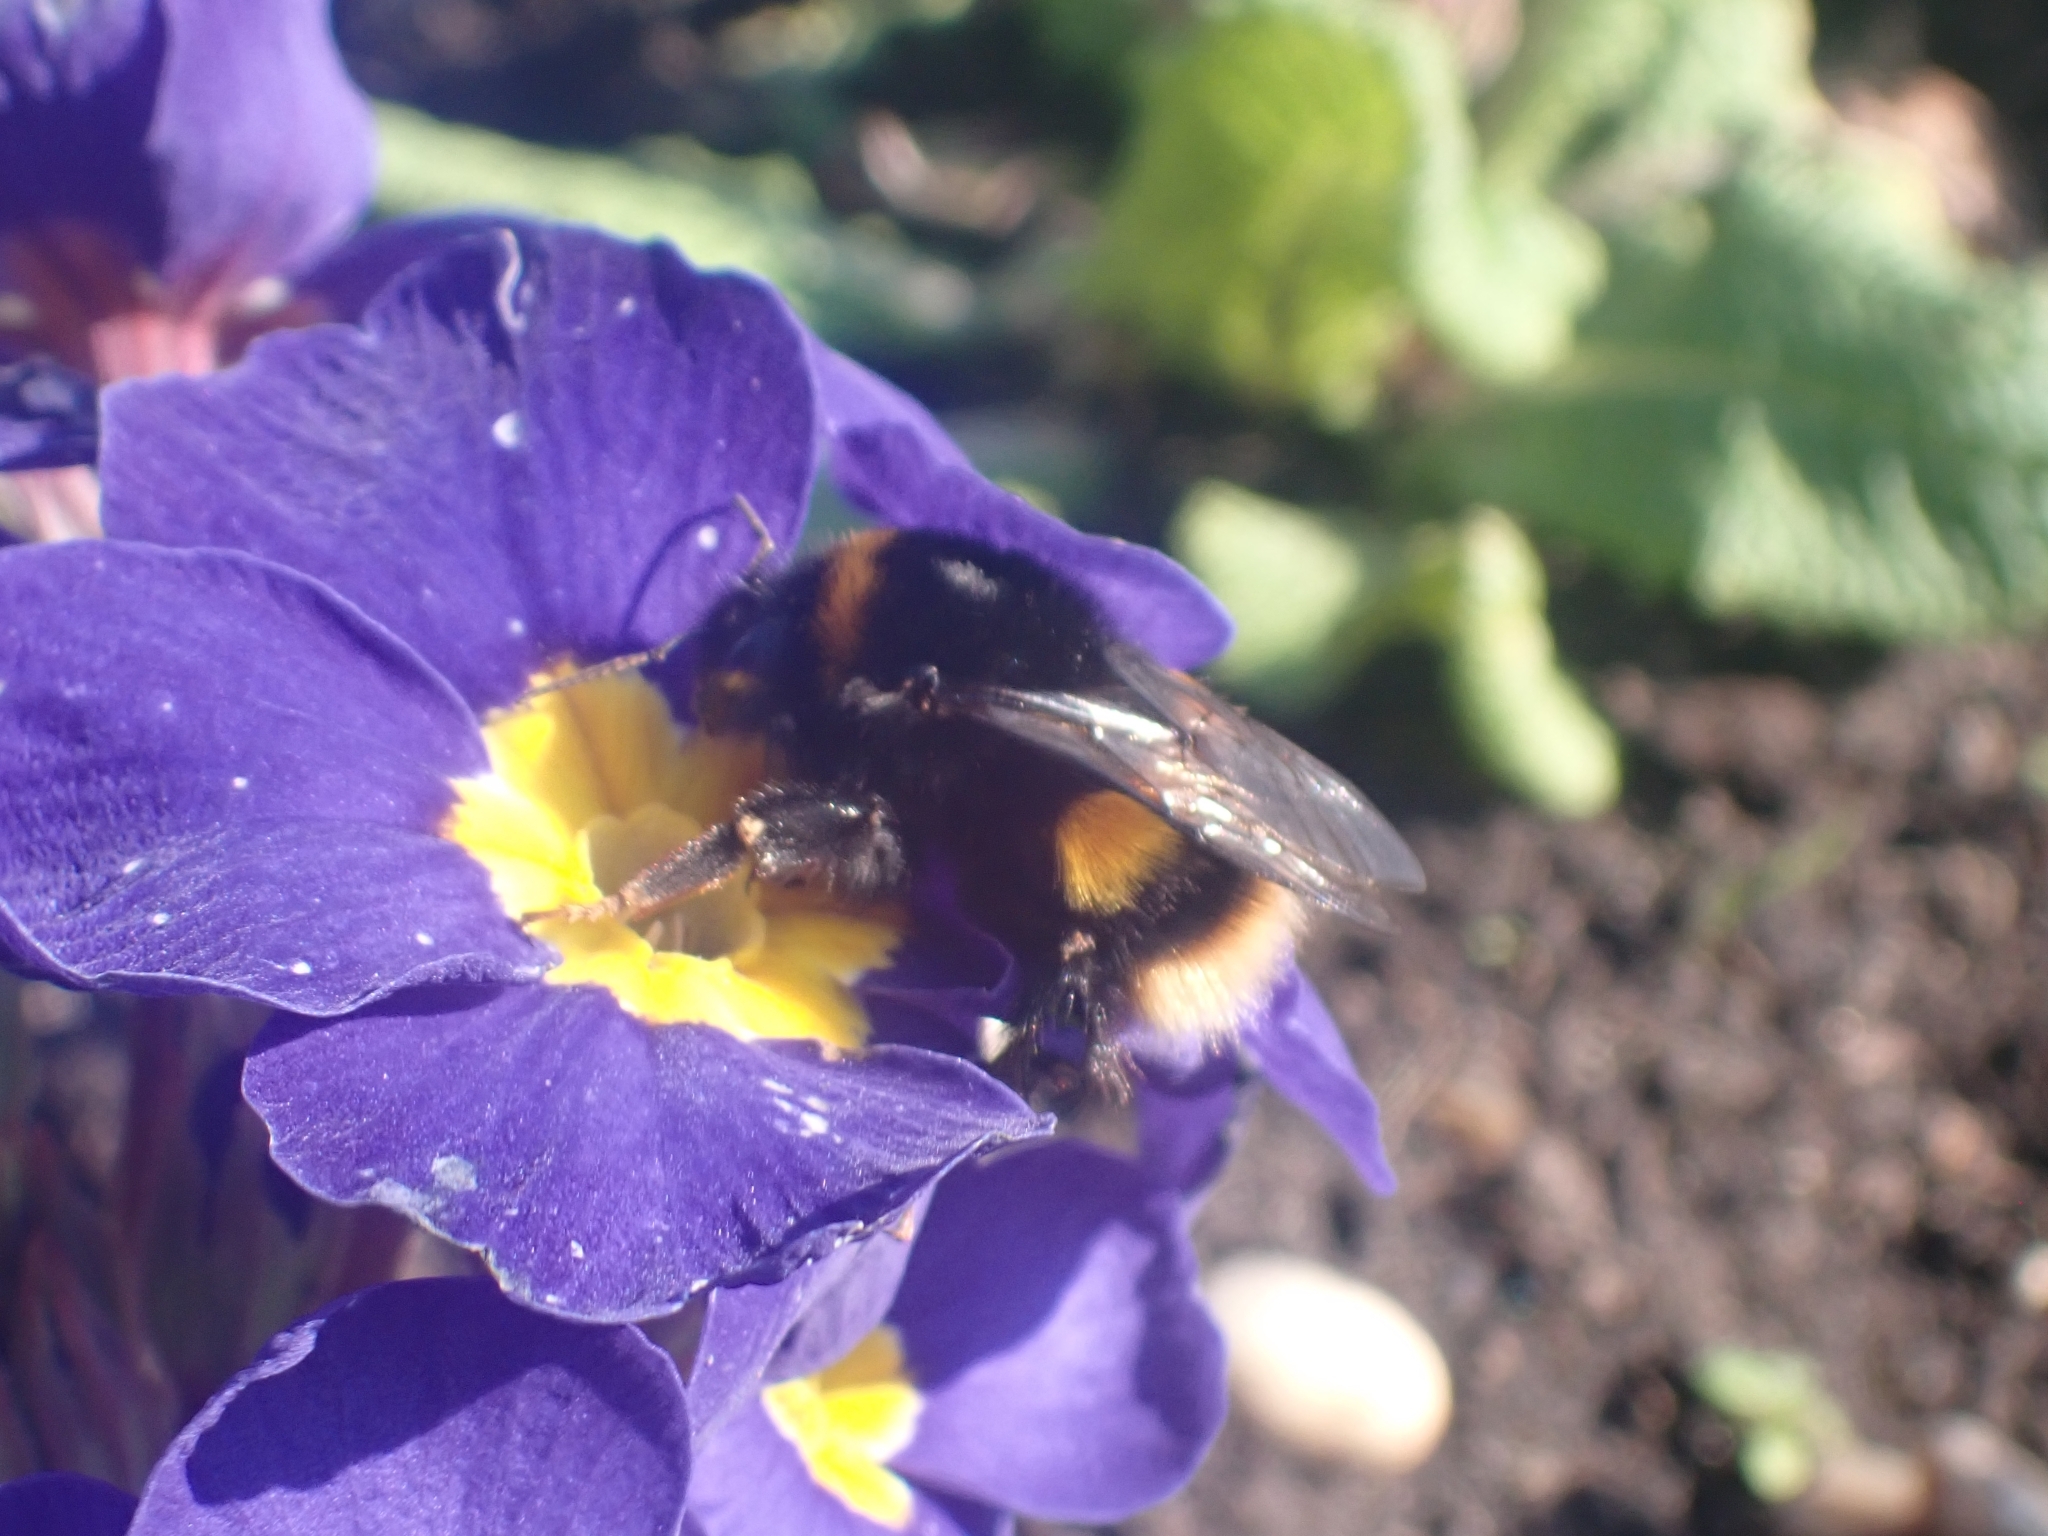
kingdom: Animalia
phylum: Arthropoda
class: Insecta
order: Hymenoptera
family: Apidae
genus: Bombus
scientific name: Bombus terrestris
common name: Buff-tailed bumblebee
